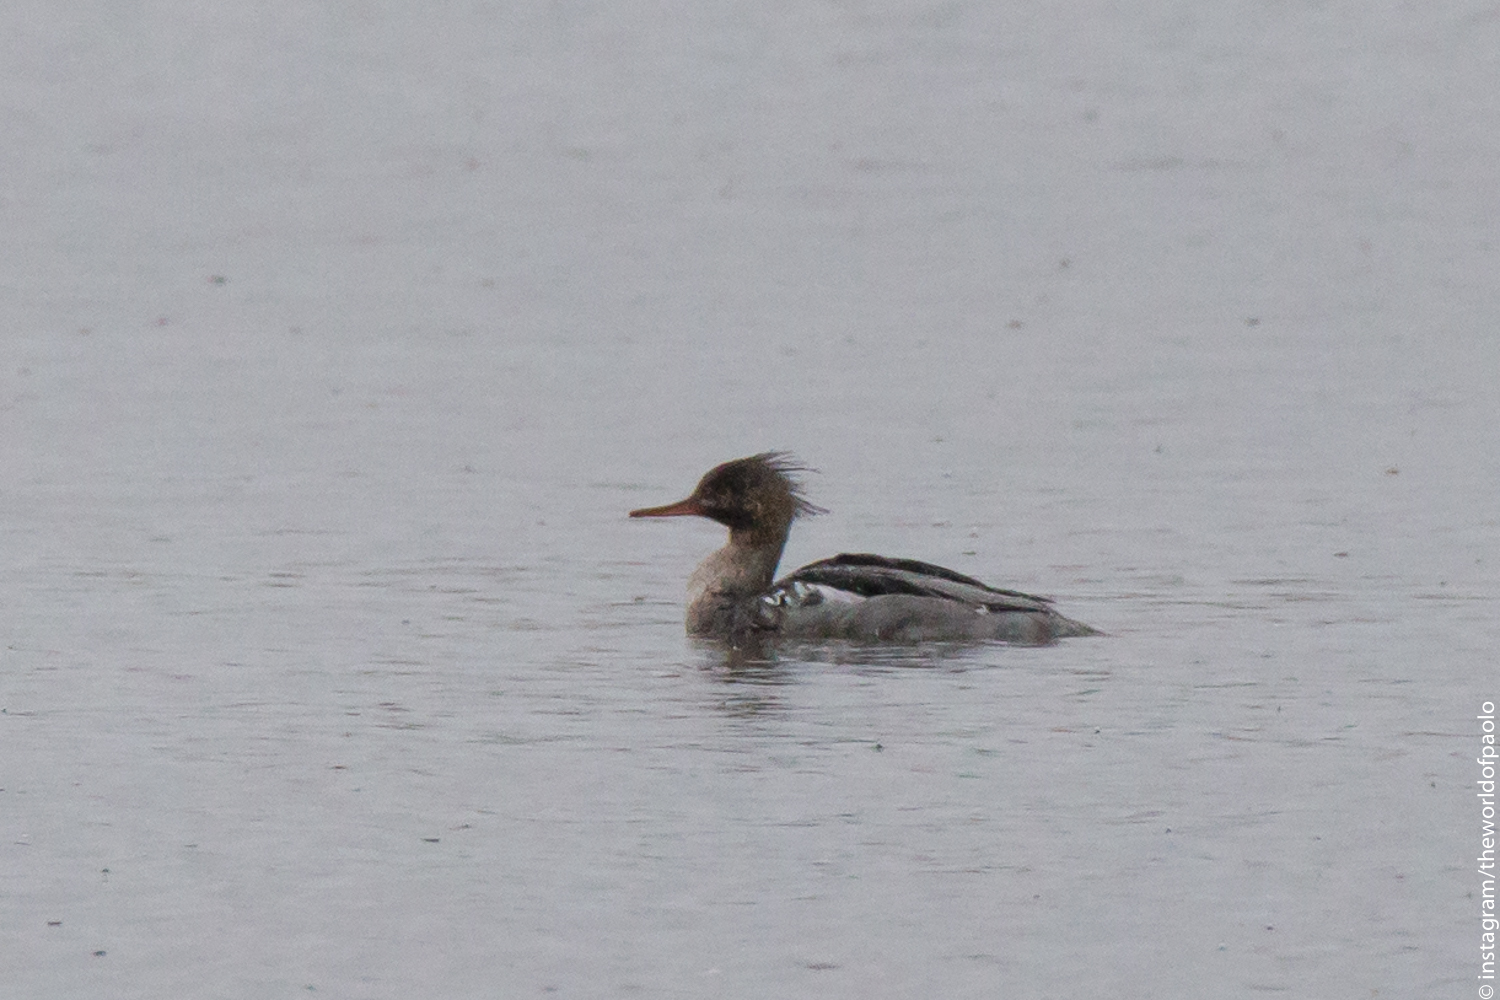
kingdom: Animalia
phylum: Chordata
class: Aves
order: Anseriformes
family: Anatidae
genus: Mergus
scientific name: Mergus serrator
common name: Red-breasted merganser
